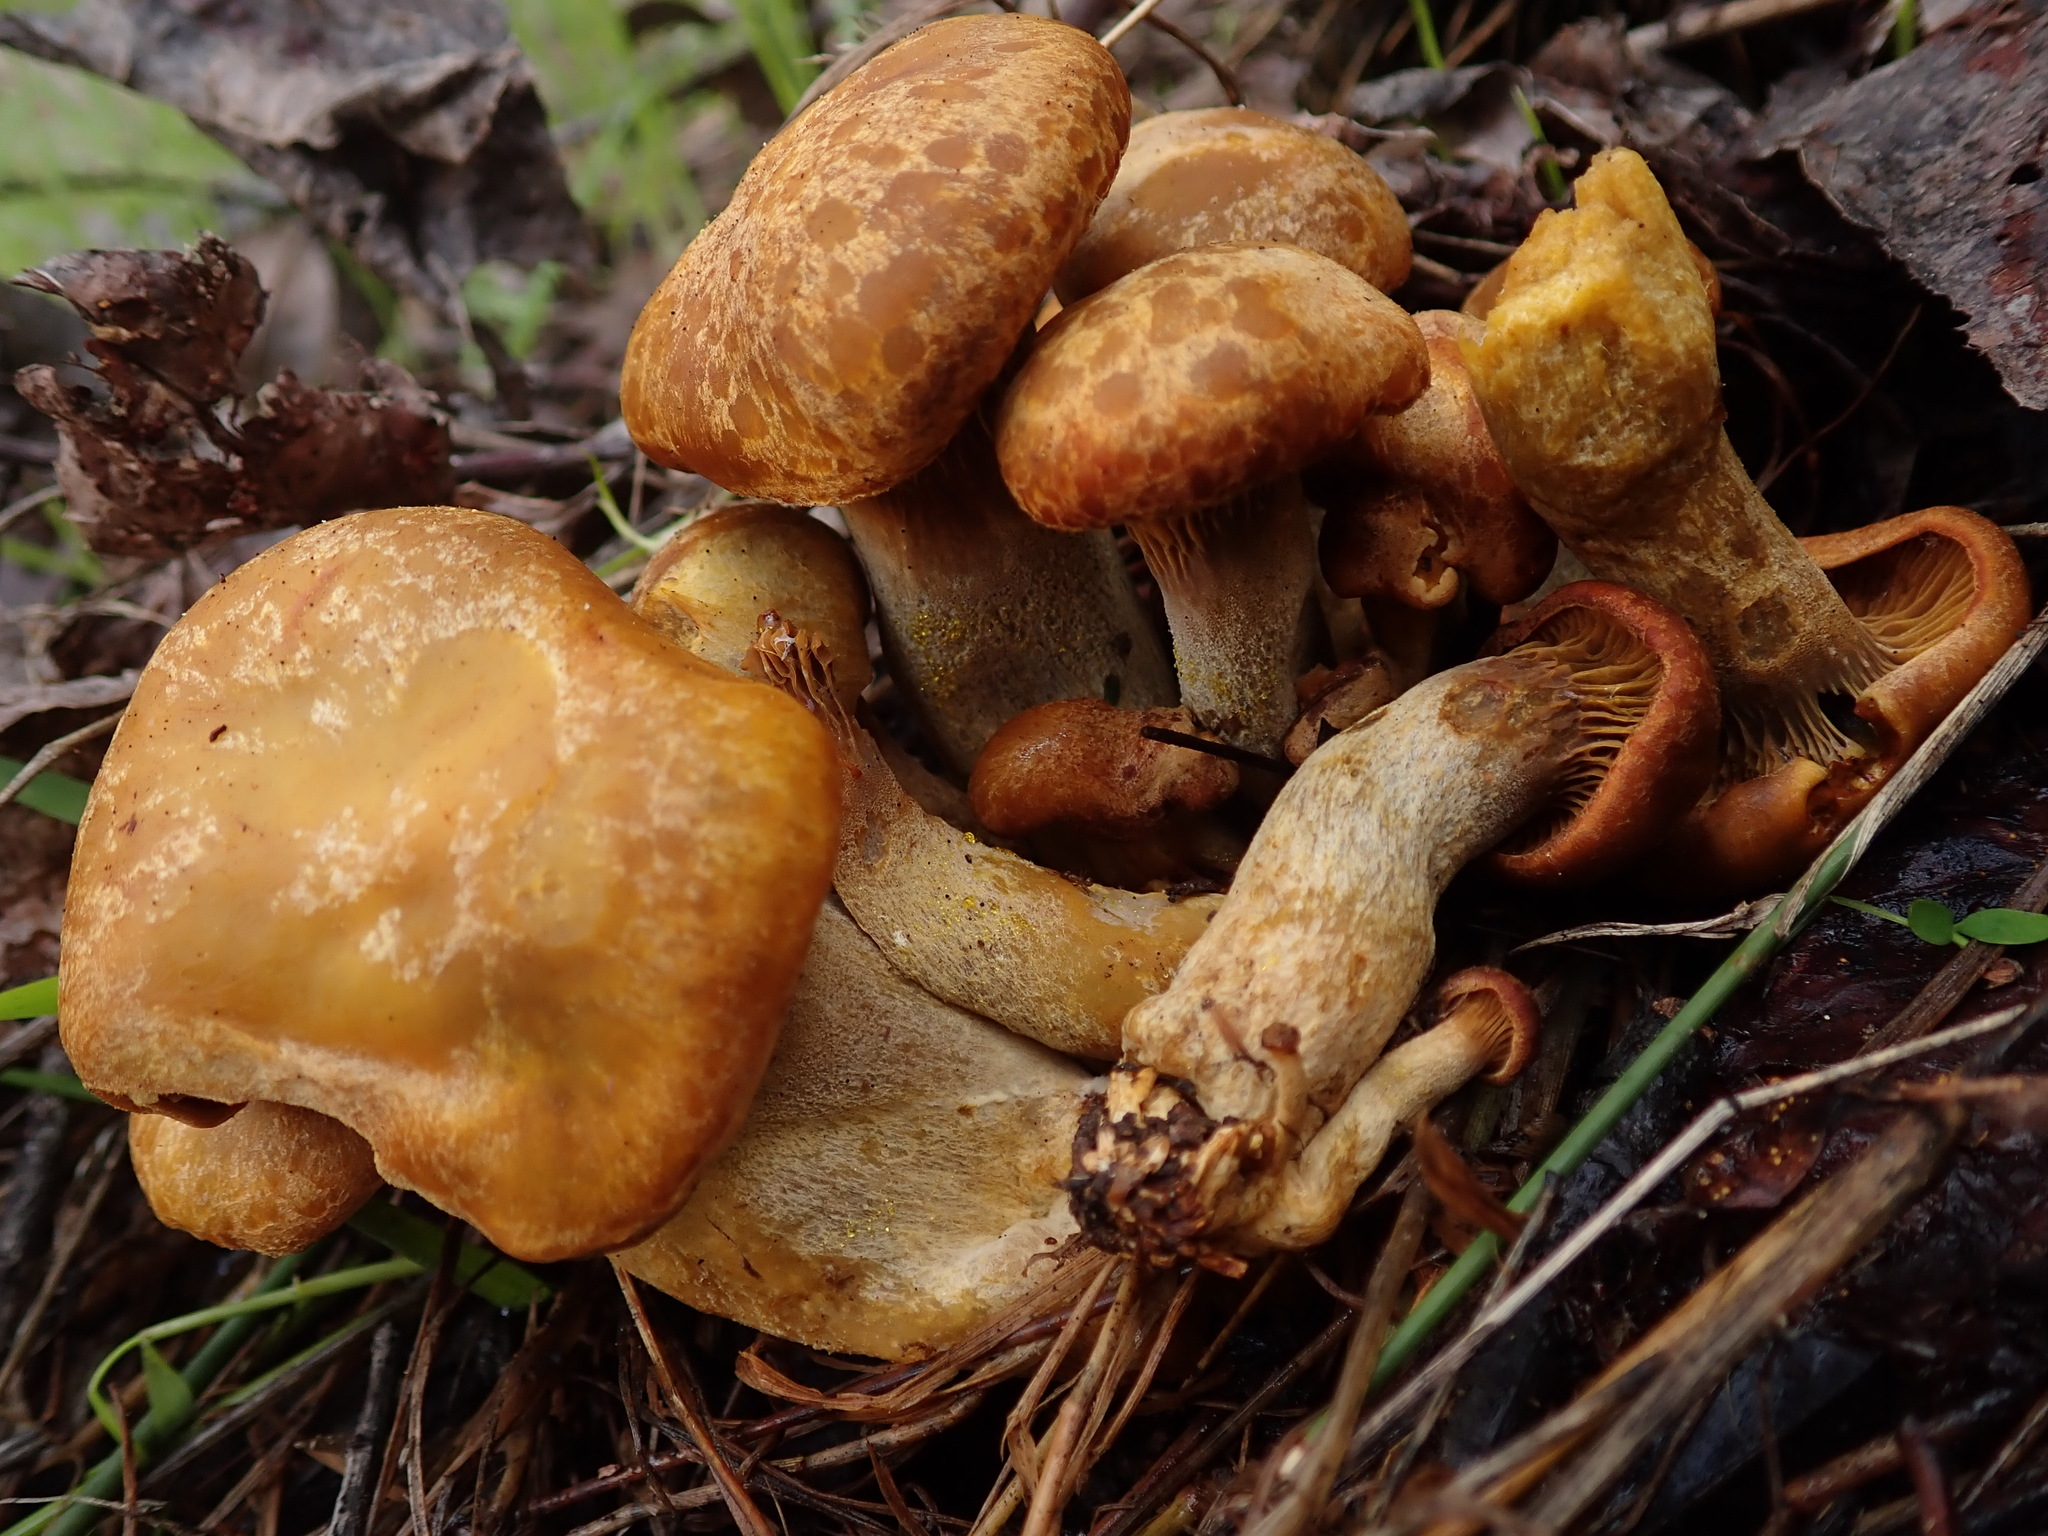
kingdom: Fungi
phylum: Basidiomycota
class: Agaricomycetes
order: Agaricales
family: Omphalotaceae
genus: Omphalotus
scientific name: Omphalotus olivascens
